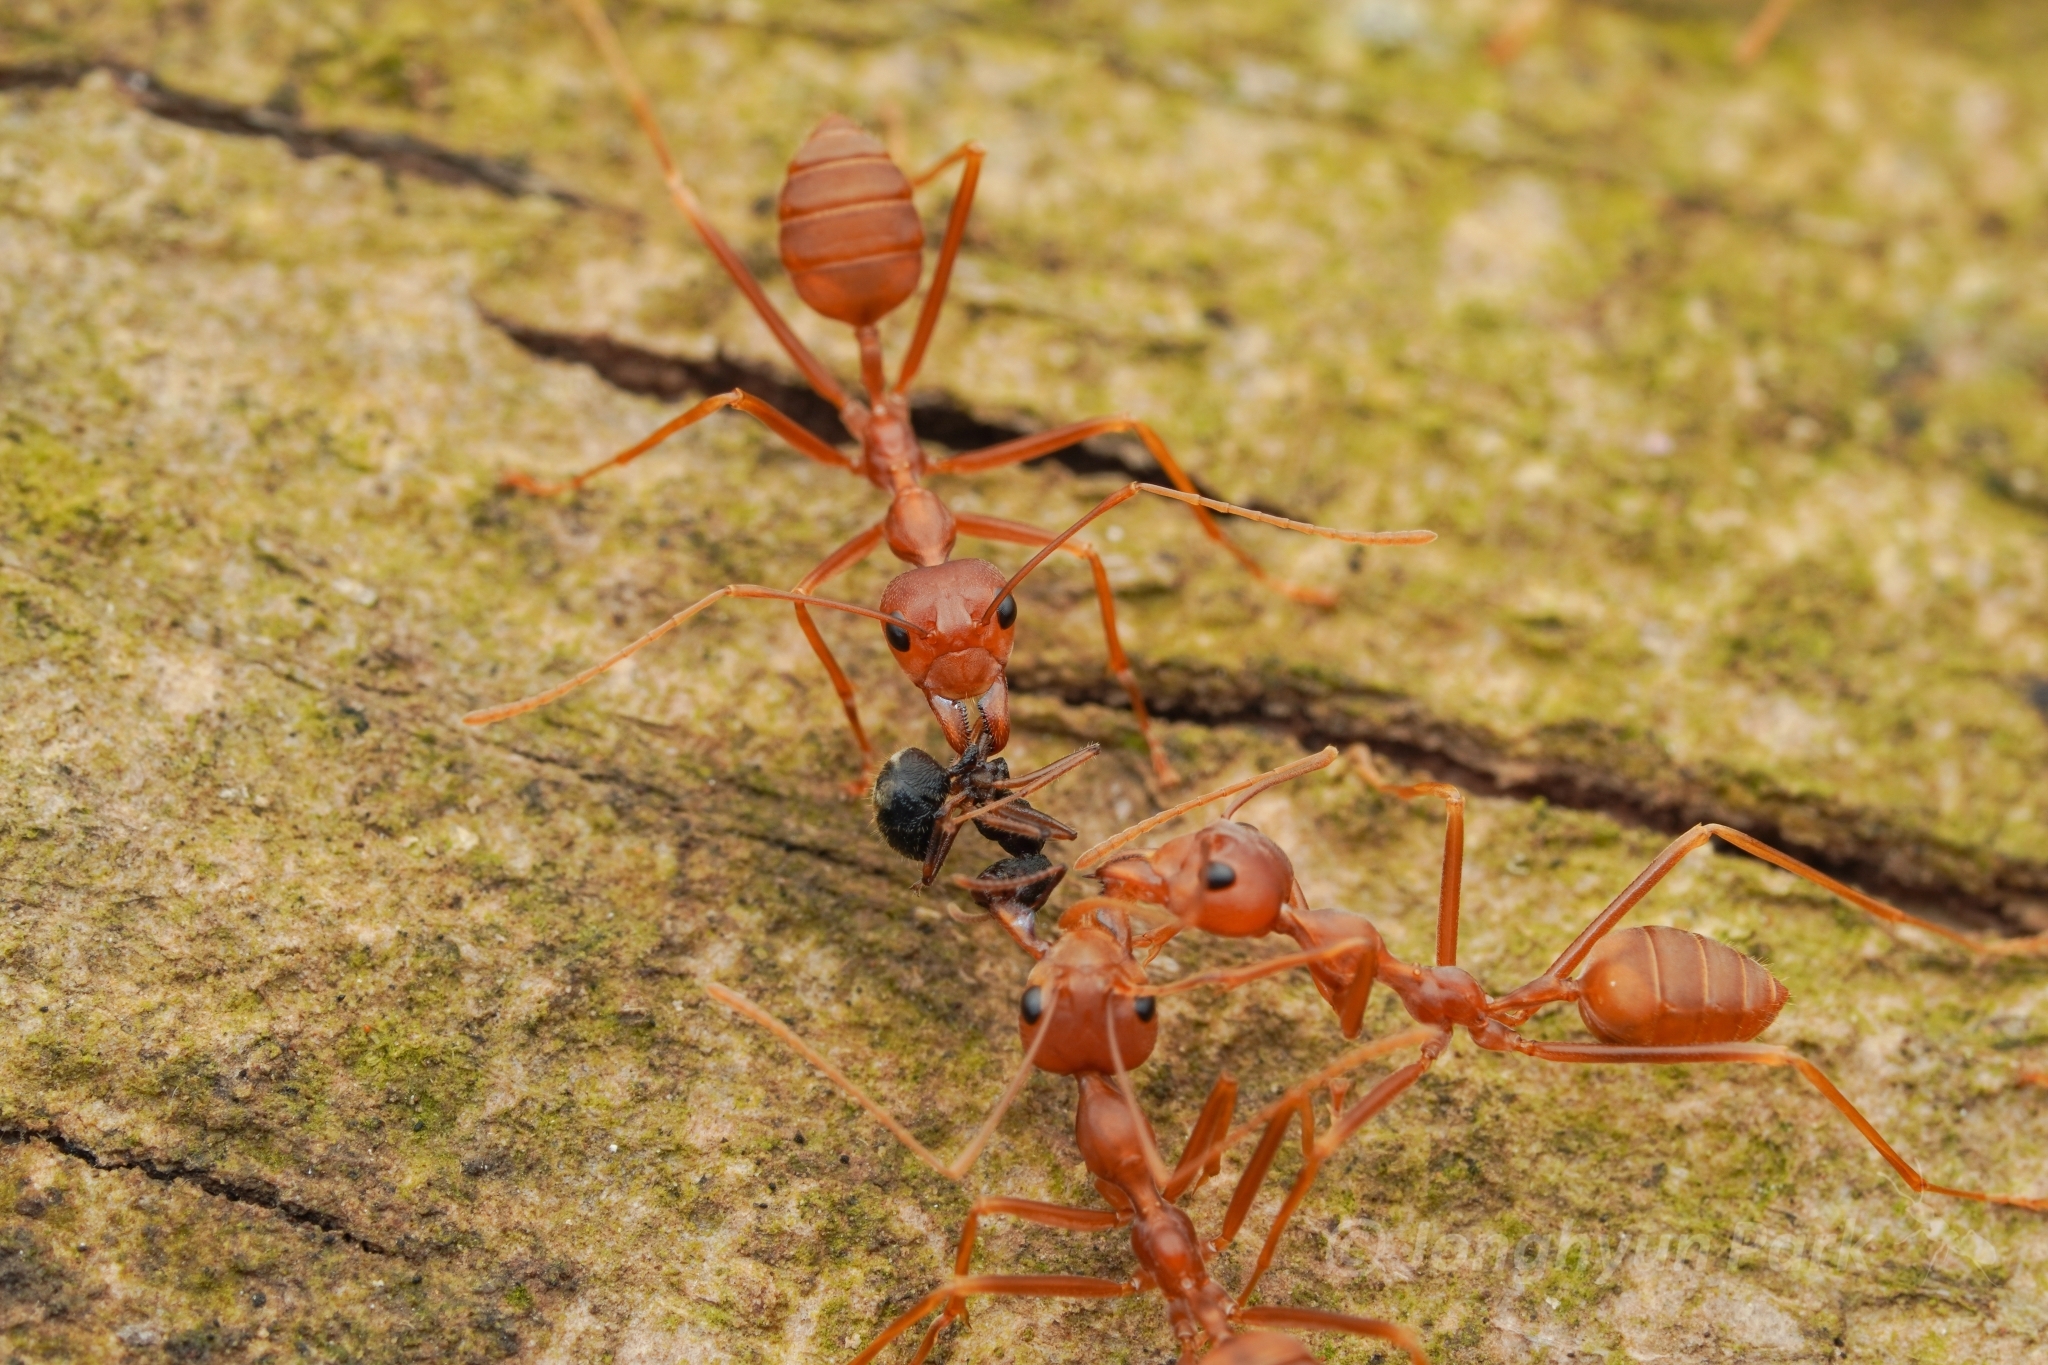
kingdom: Animalia
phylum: Arthropoda
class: Insecta
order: Hymenoptera
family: Formicidae
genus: Oecophylla
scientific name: Oecophylla smaragdina
